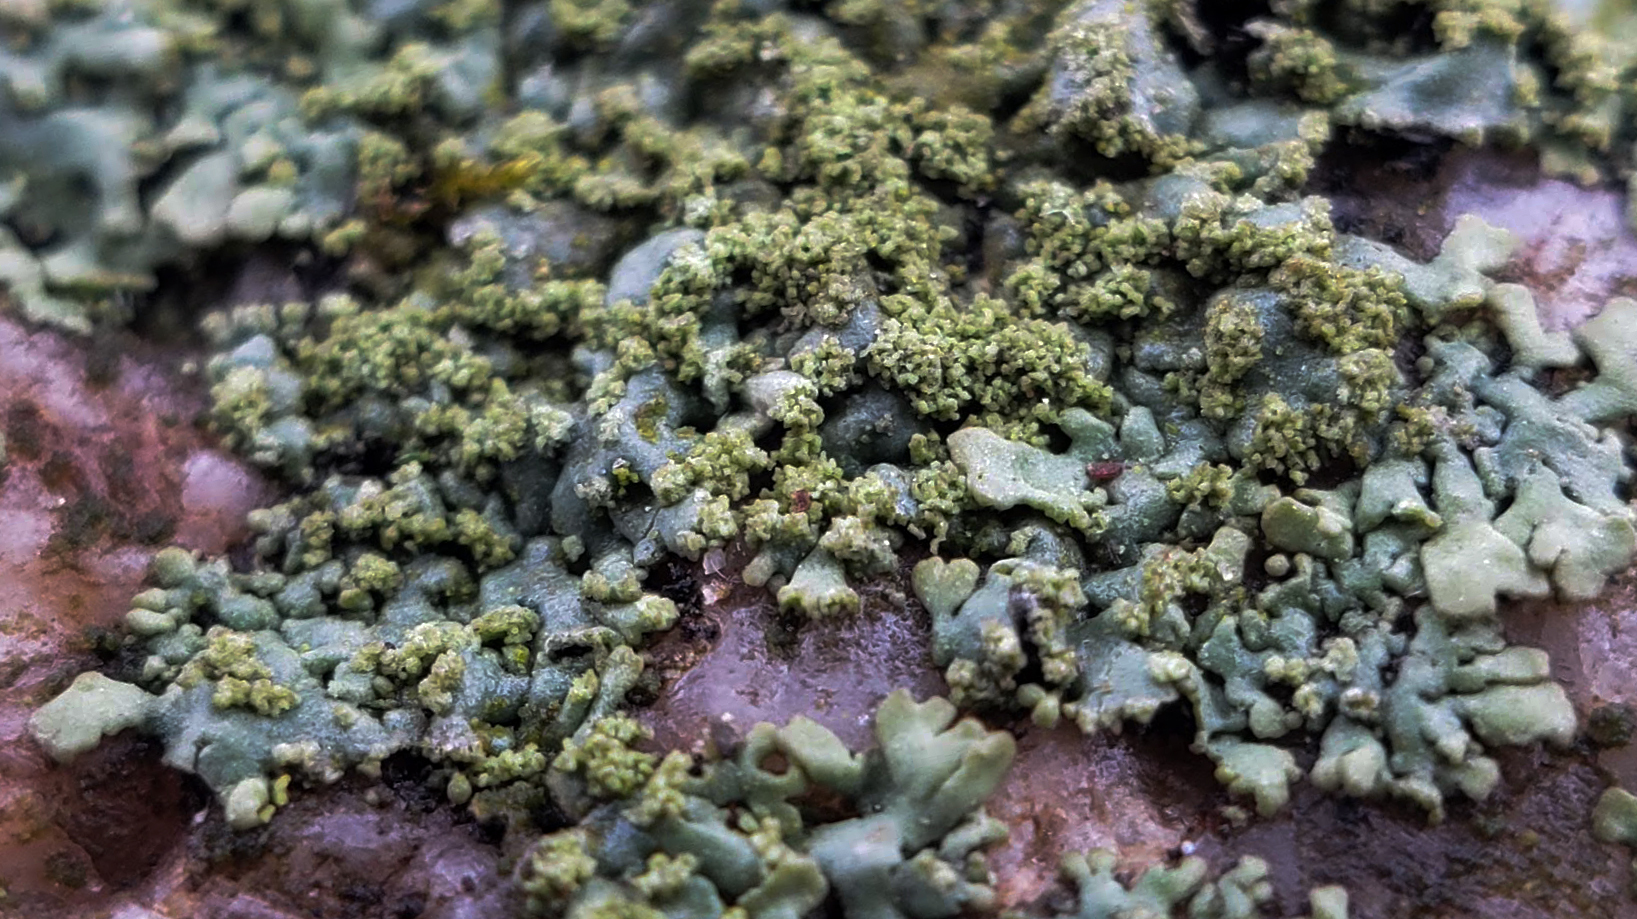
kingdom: Fungi
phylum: Ascomycota
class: Lecanoromycetes
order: Caliciales
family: Physciaceae
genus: Phaeophyscia
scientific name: Phaeophyscia adiastola
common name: Powder-tipped shadow lichen
